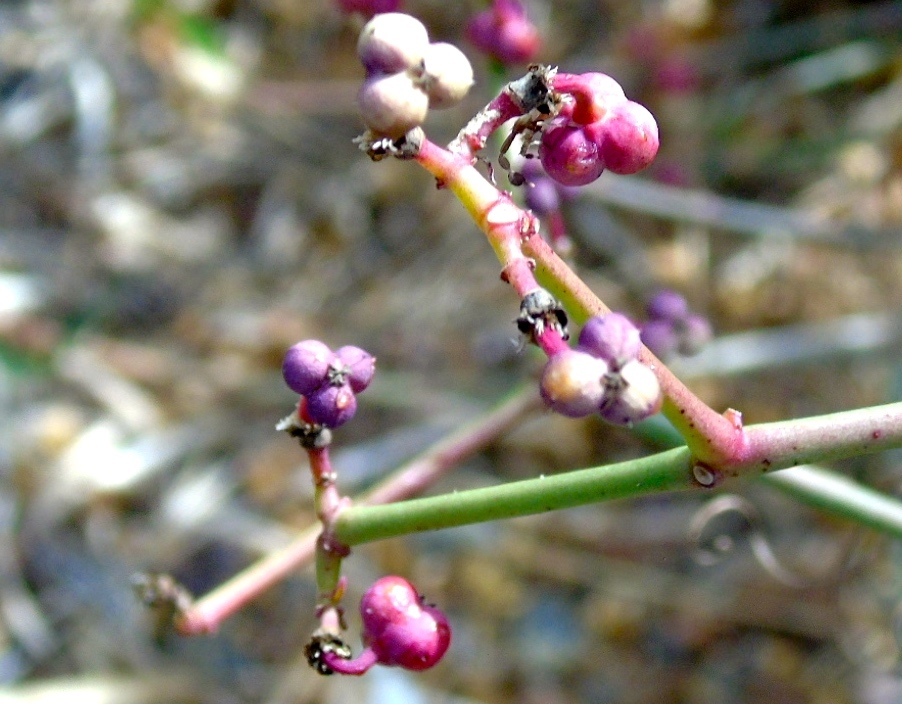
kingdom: Plantae
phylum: Tracheophyta
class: Magnoliopsida
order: Malpighiales
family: Euphorbiaceae
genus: Euphorbia
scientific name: Euphorbia
